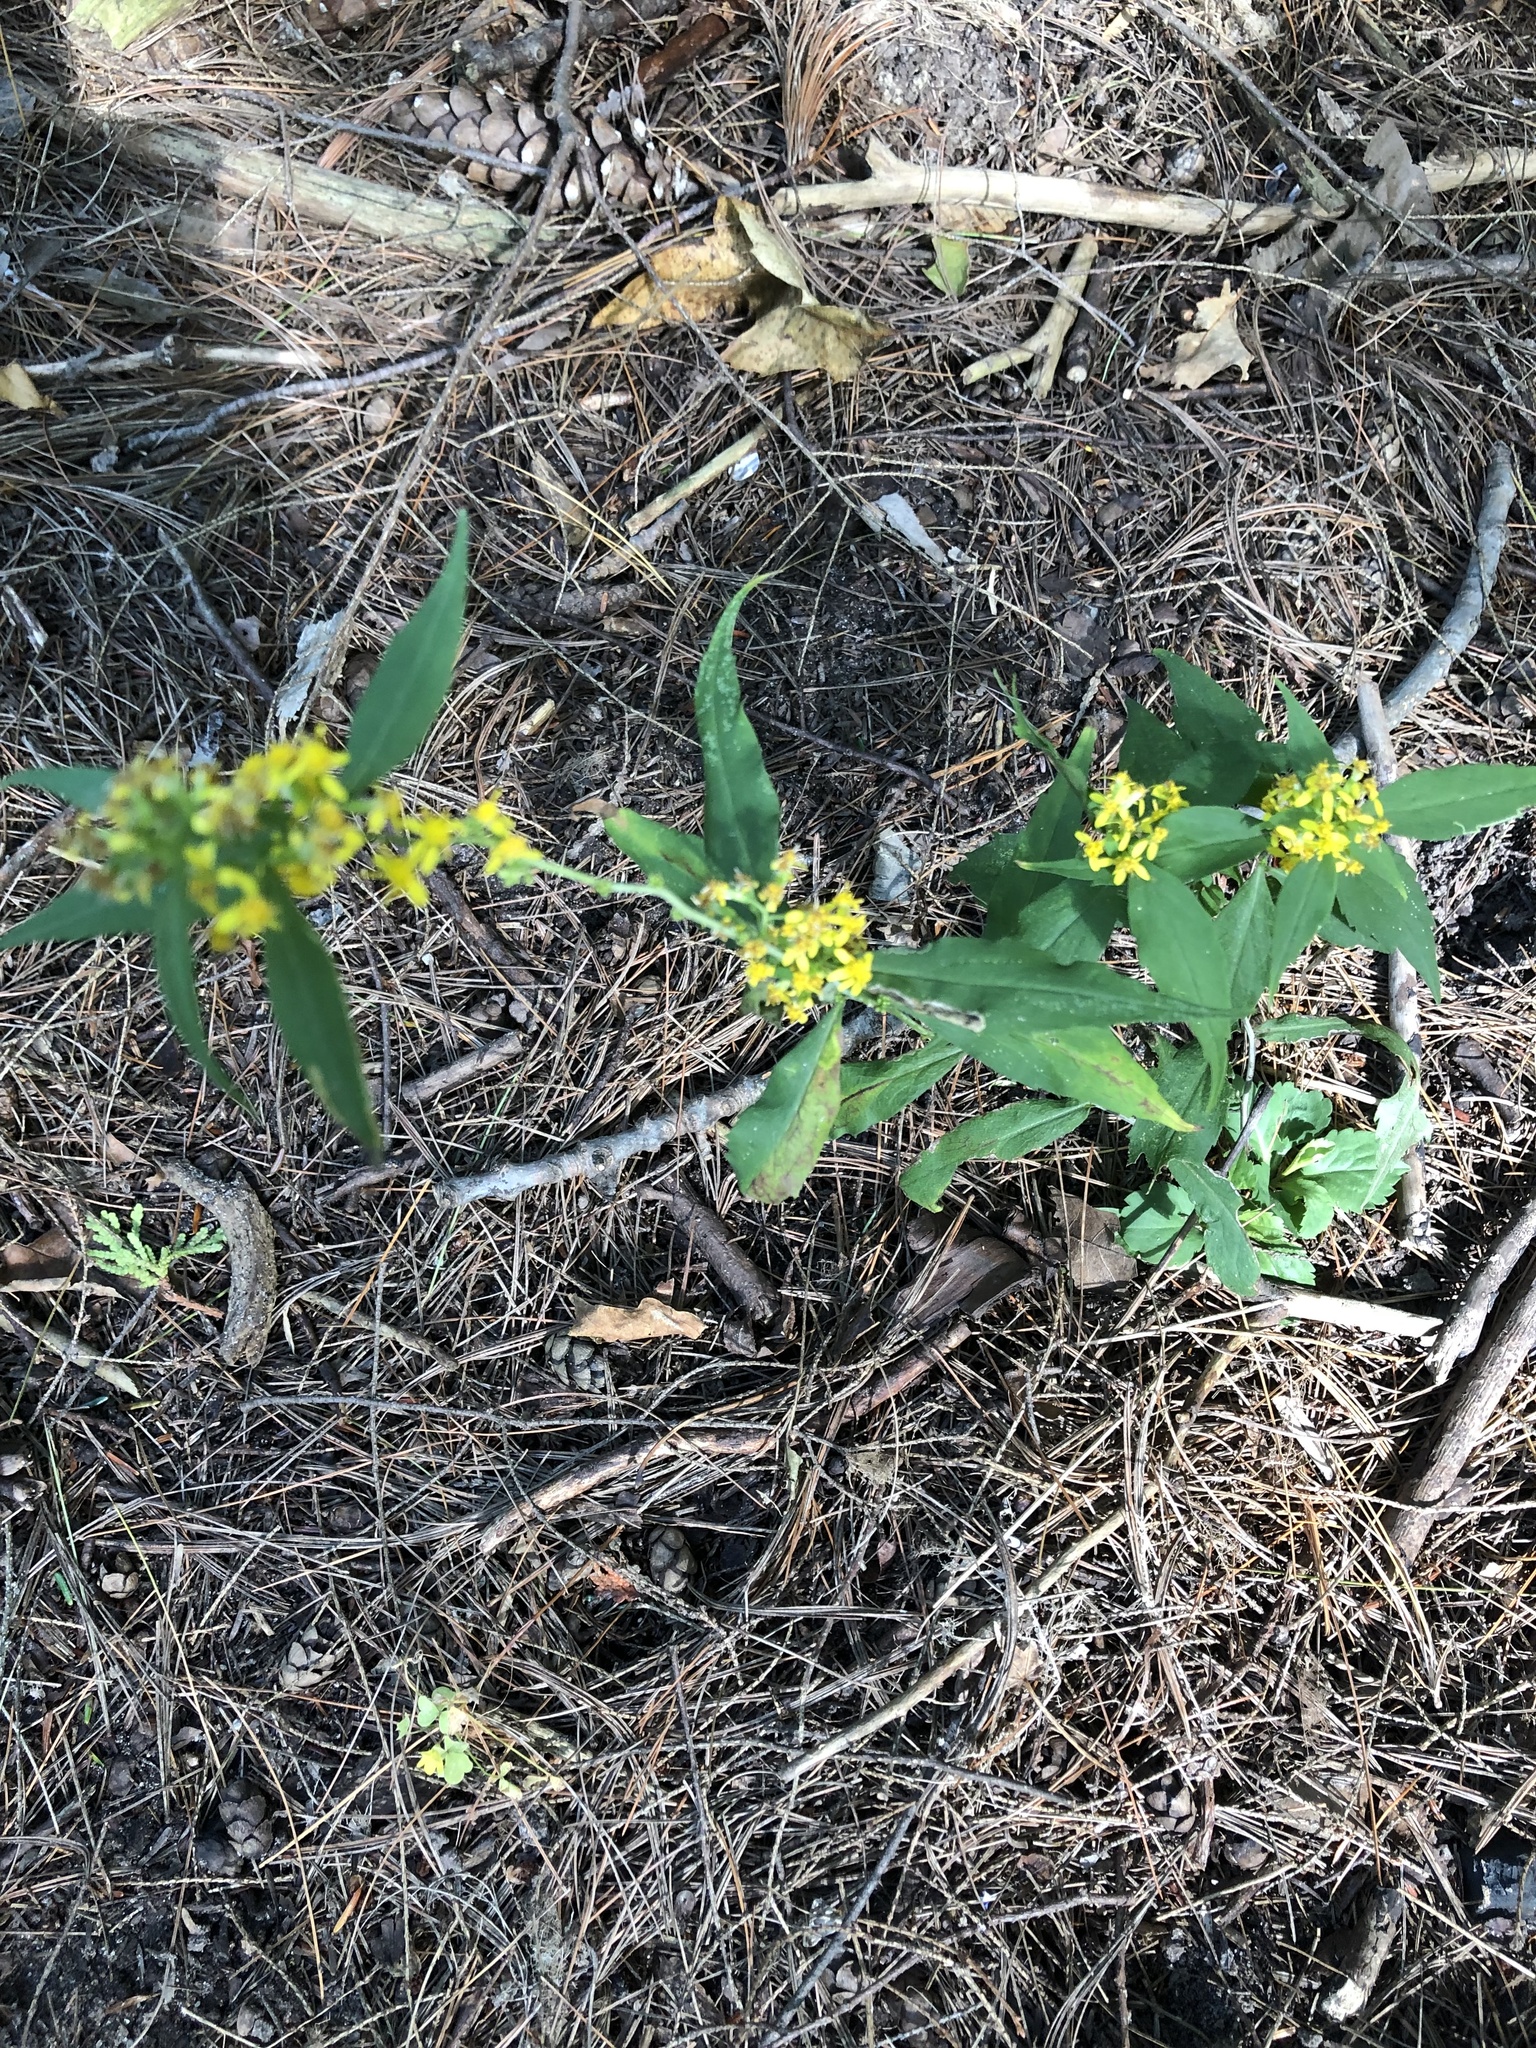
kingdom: Plantae
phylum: Tracheophyta
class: Magnoliopsida
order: Asterales
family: Asteraceae
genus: Solidago
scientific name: Solidago caesia
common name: Woodland goldenrod
